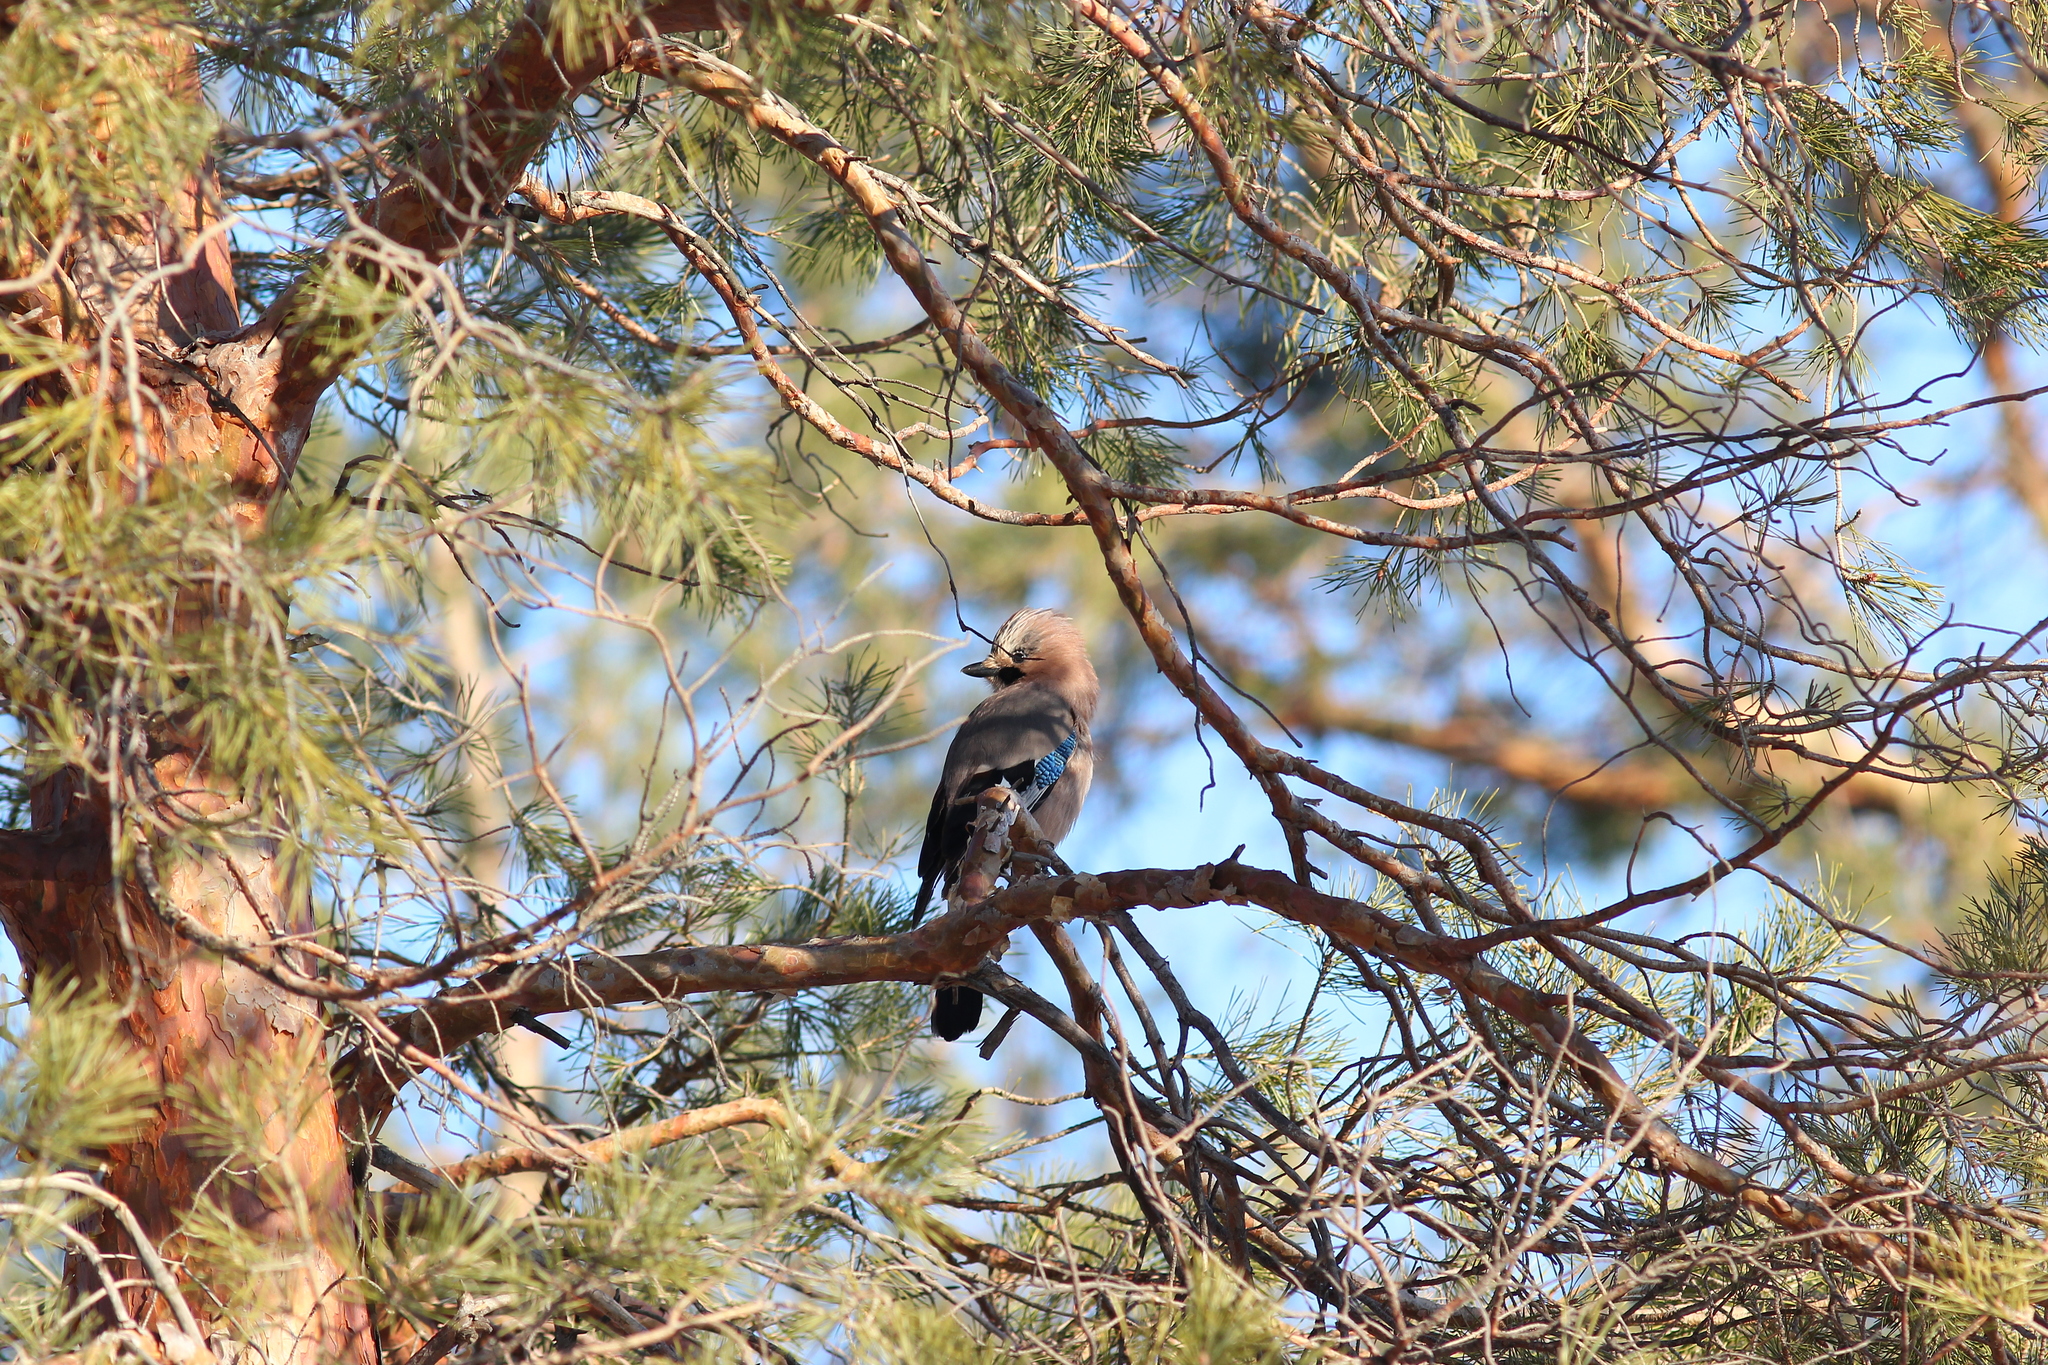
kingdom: Animalia
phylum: Chordata
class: Aves
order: Passeriformes
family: Corvidae
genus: Garrulus
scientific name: Garrulus glandarius
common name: Eurasian jay
